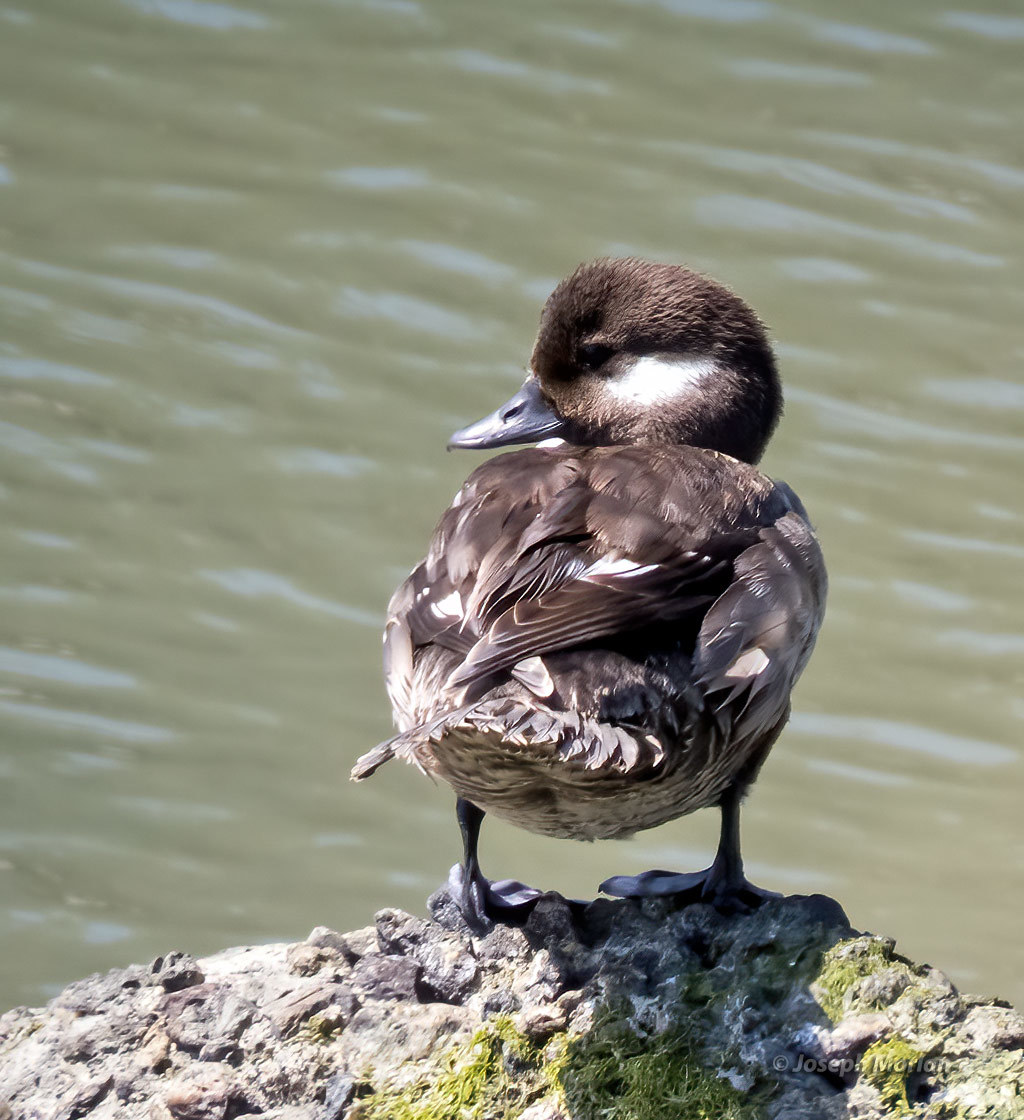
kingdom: Animalia
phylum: Chordata
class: Aves
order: Anseriformes
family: Anatidae
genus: Bucephala
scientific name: Bucephala albeola
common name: Bufflehead
